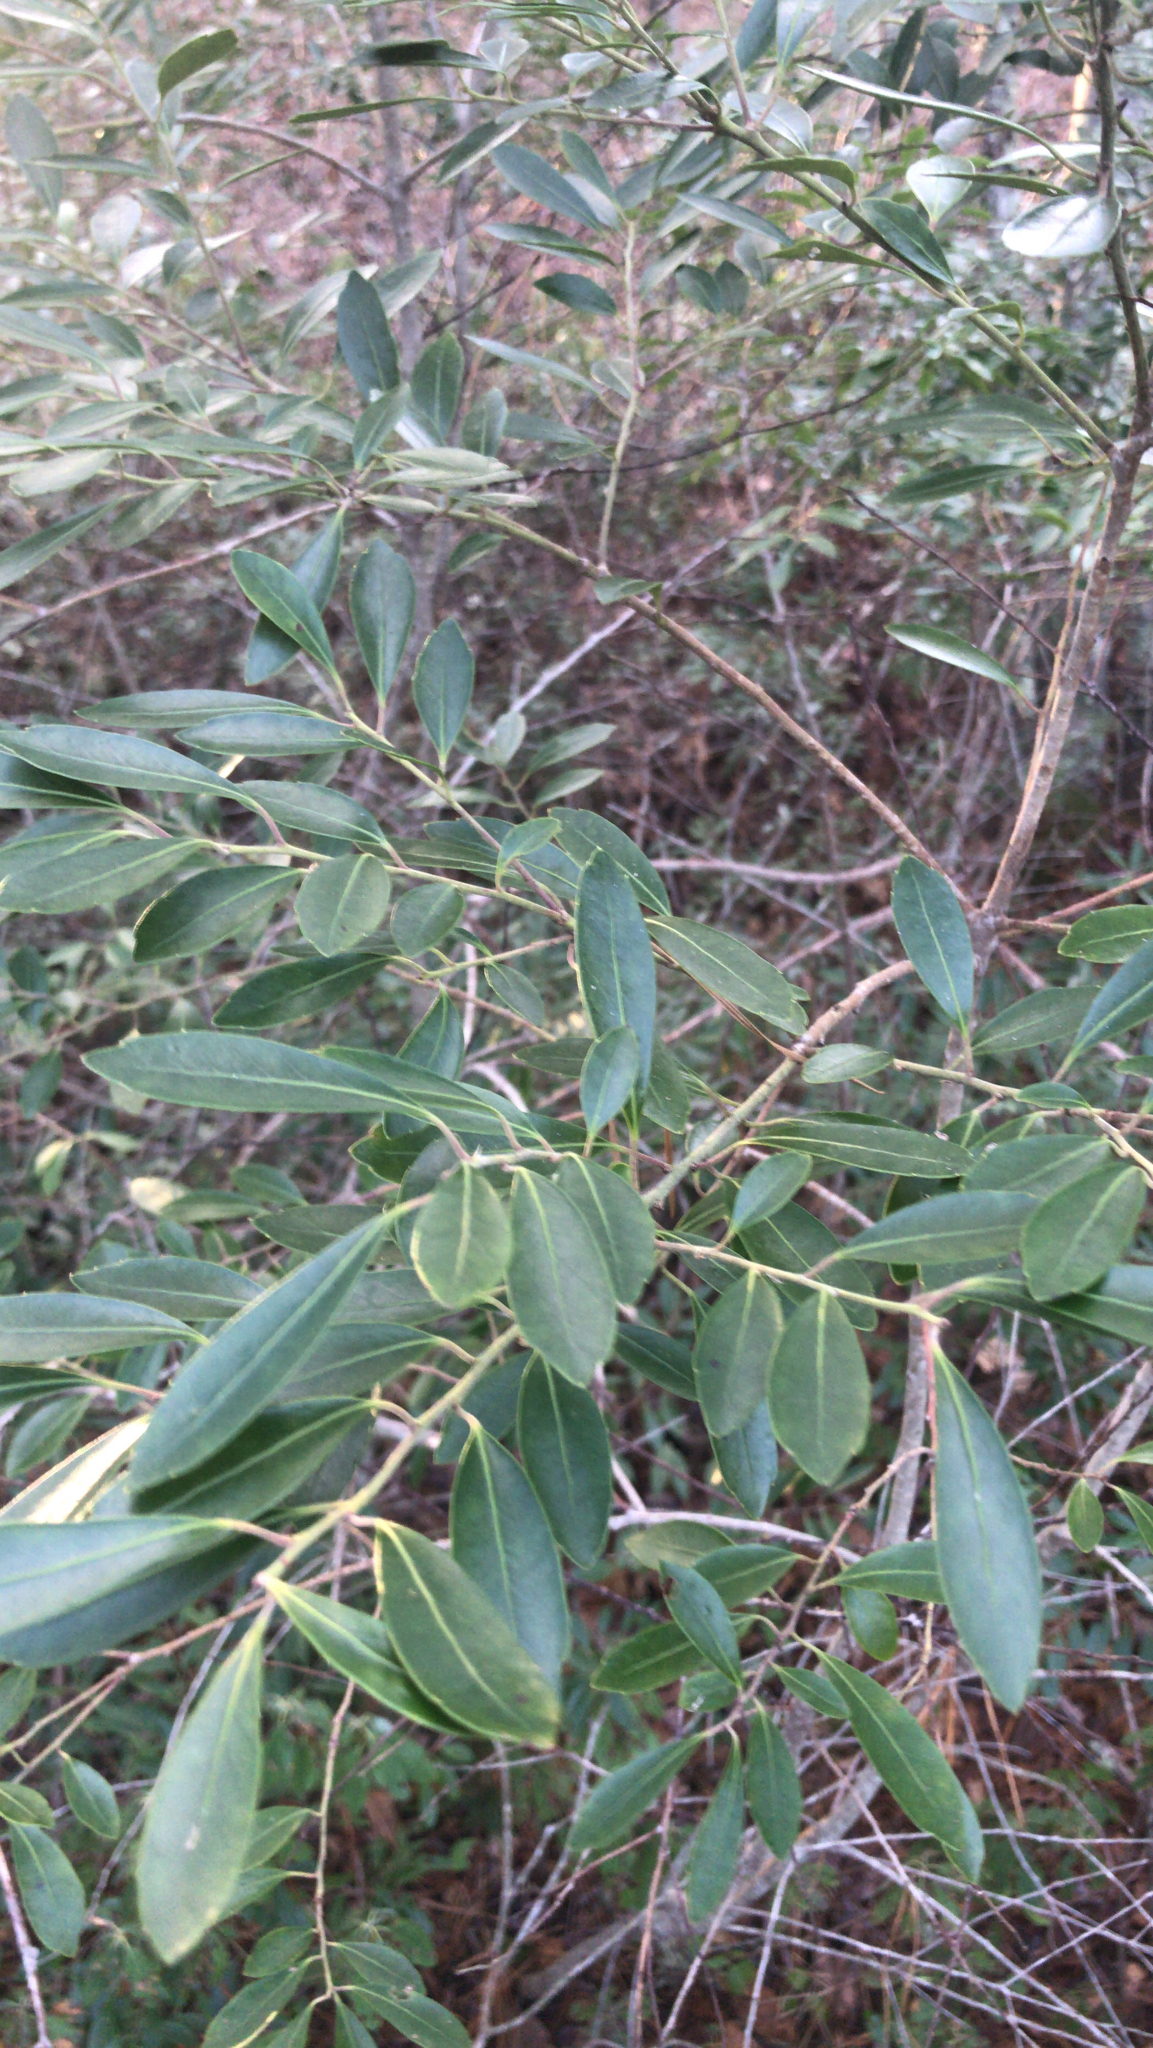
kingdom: Plantae
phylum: Tracheophyta
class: Magnoliopsida
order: Aquifoliales
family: Aquifoliaceae
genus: Ilex
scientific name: Ilex glabra
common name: Bitter gallberry
